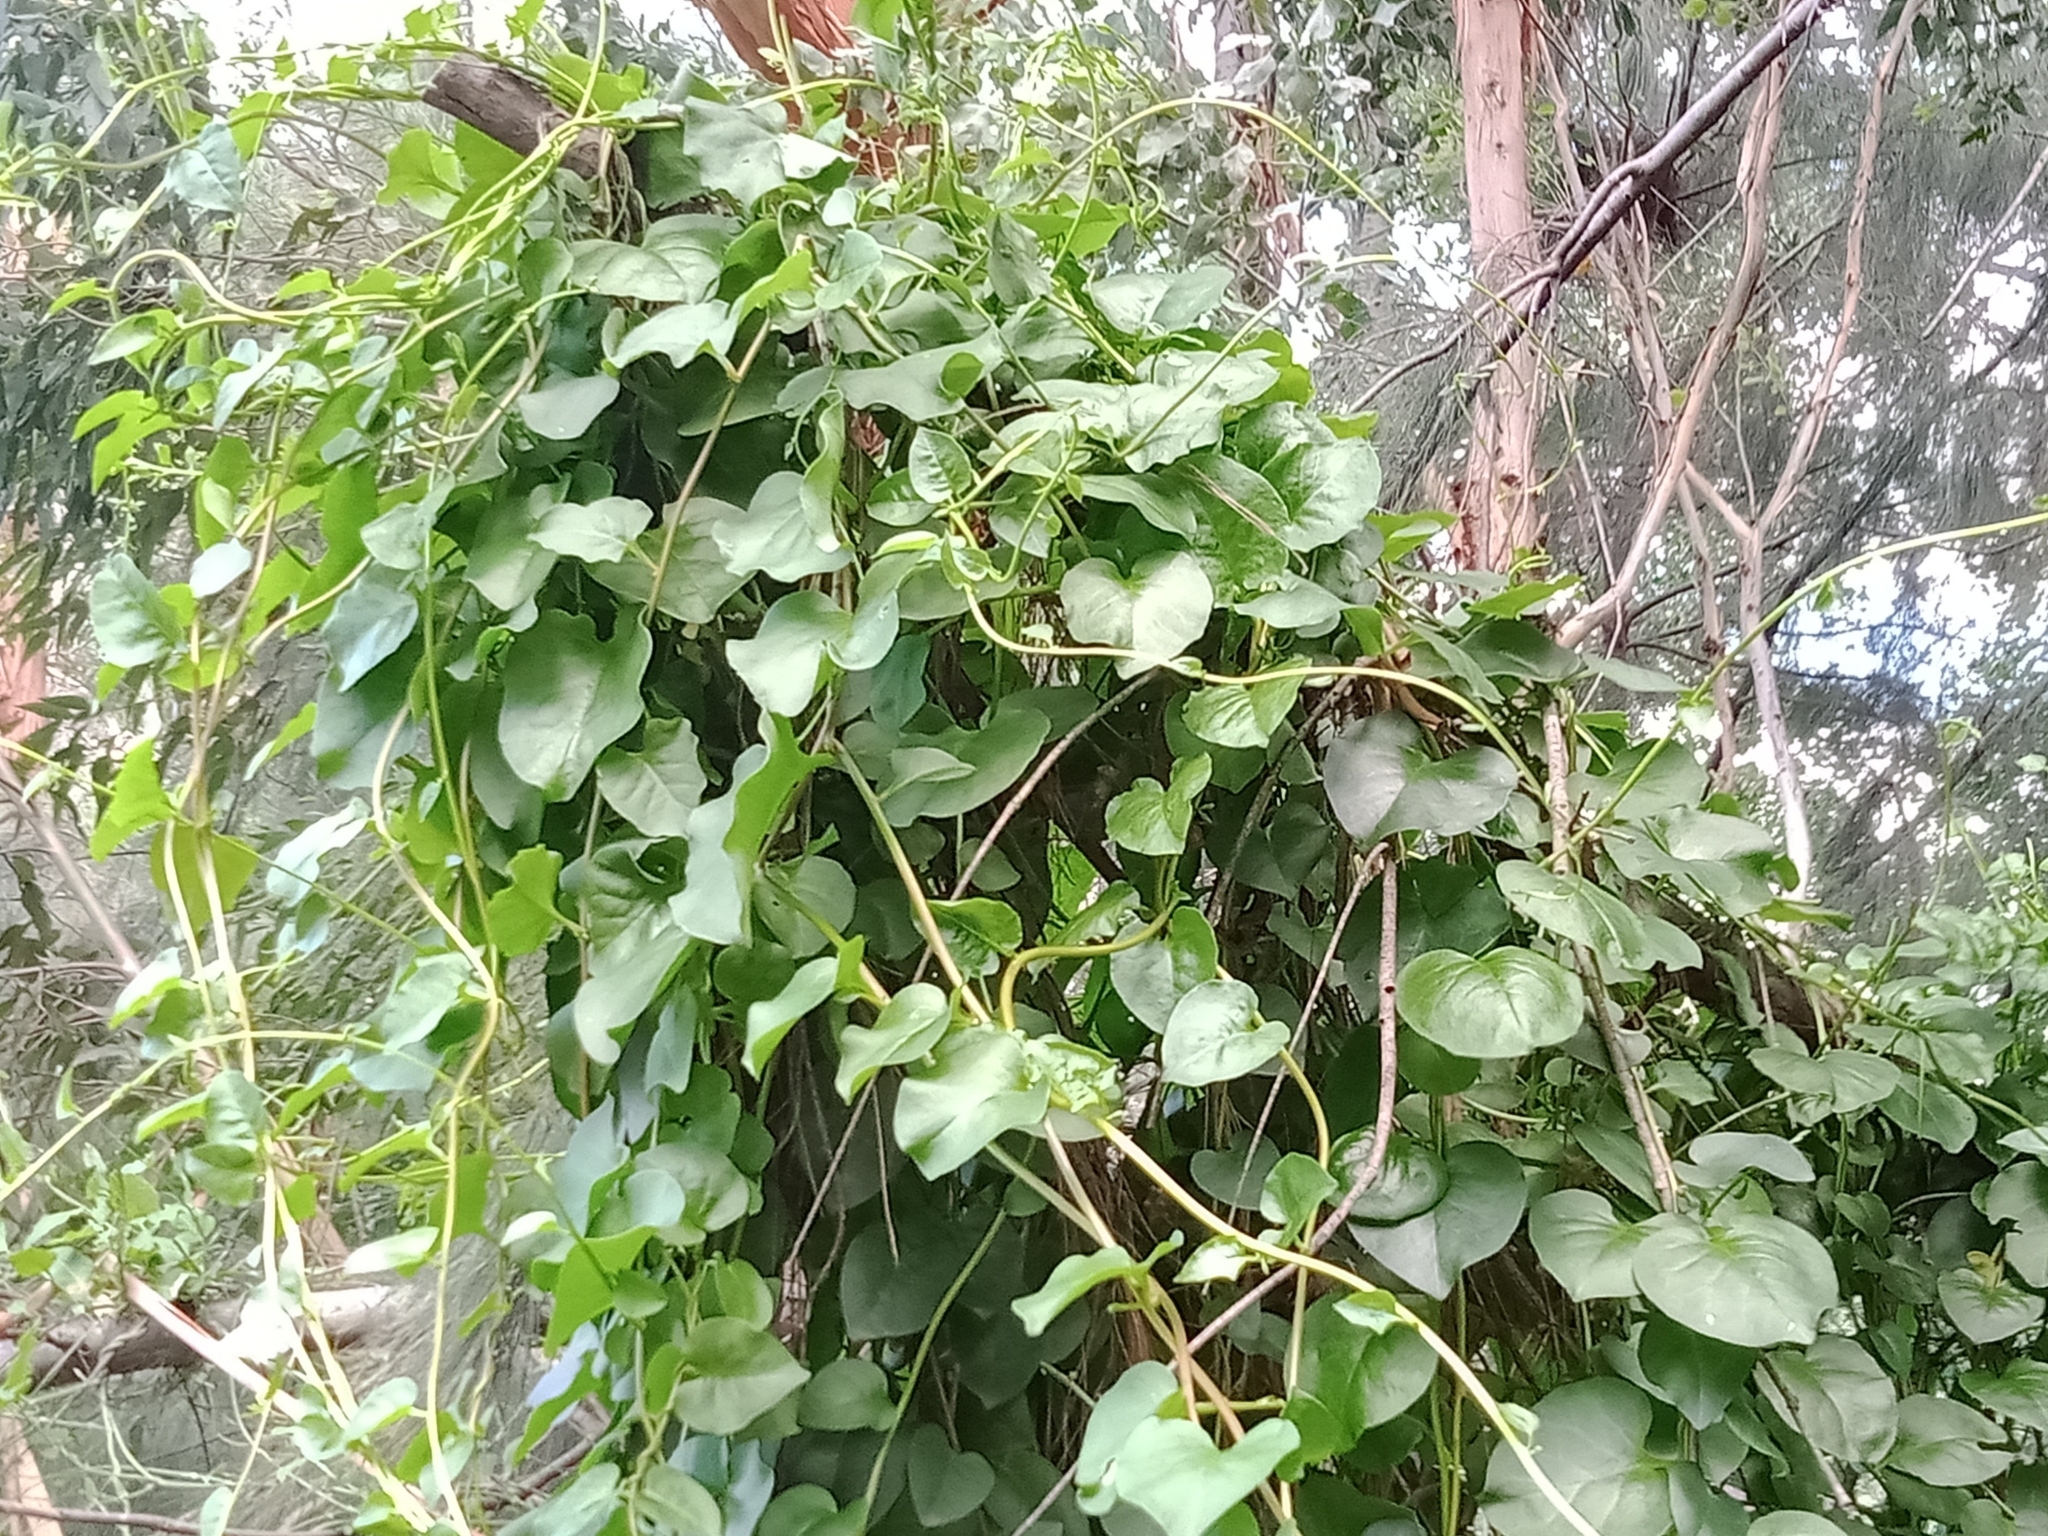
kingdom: Plantae
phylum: Tracheophyta
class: Magnoliopsida
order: Caryophyllales
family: Basellaceae
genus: Anredera
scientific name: Anredera cordifolia
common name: Heartleaf madeiravine
